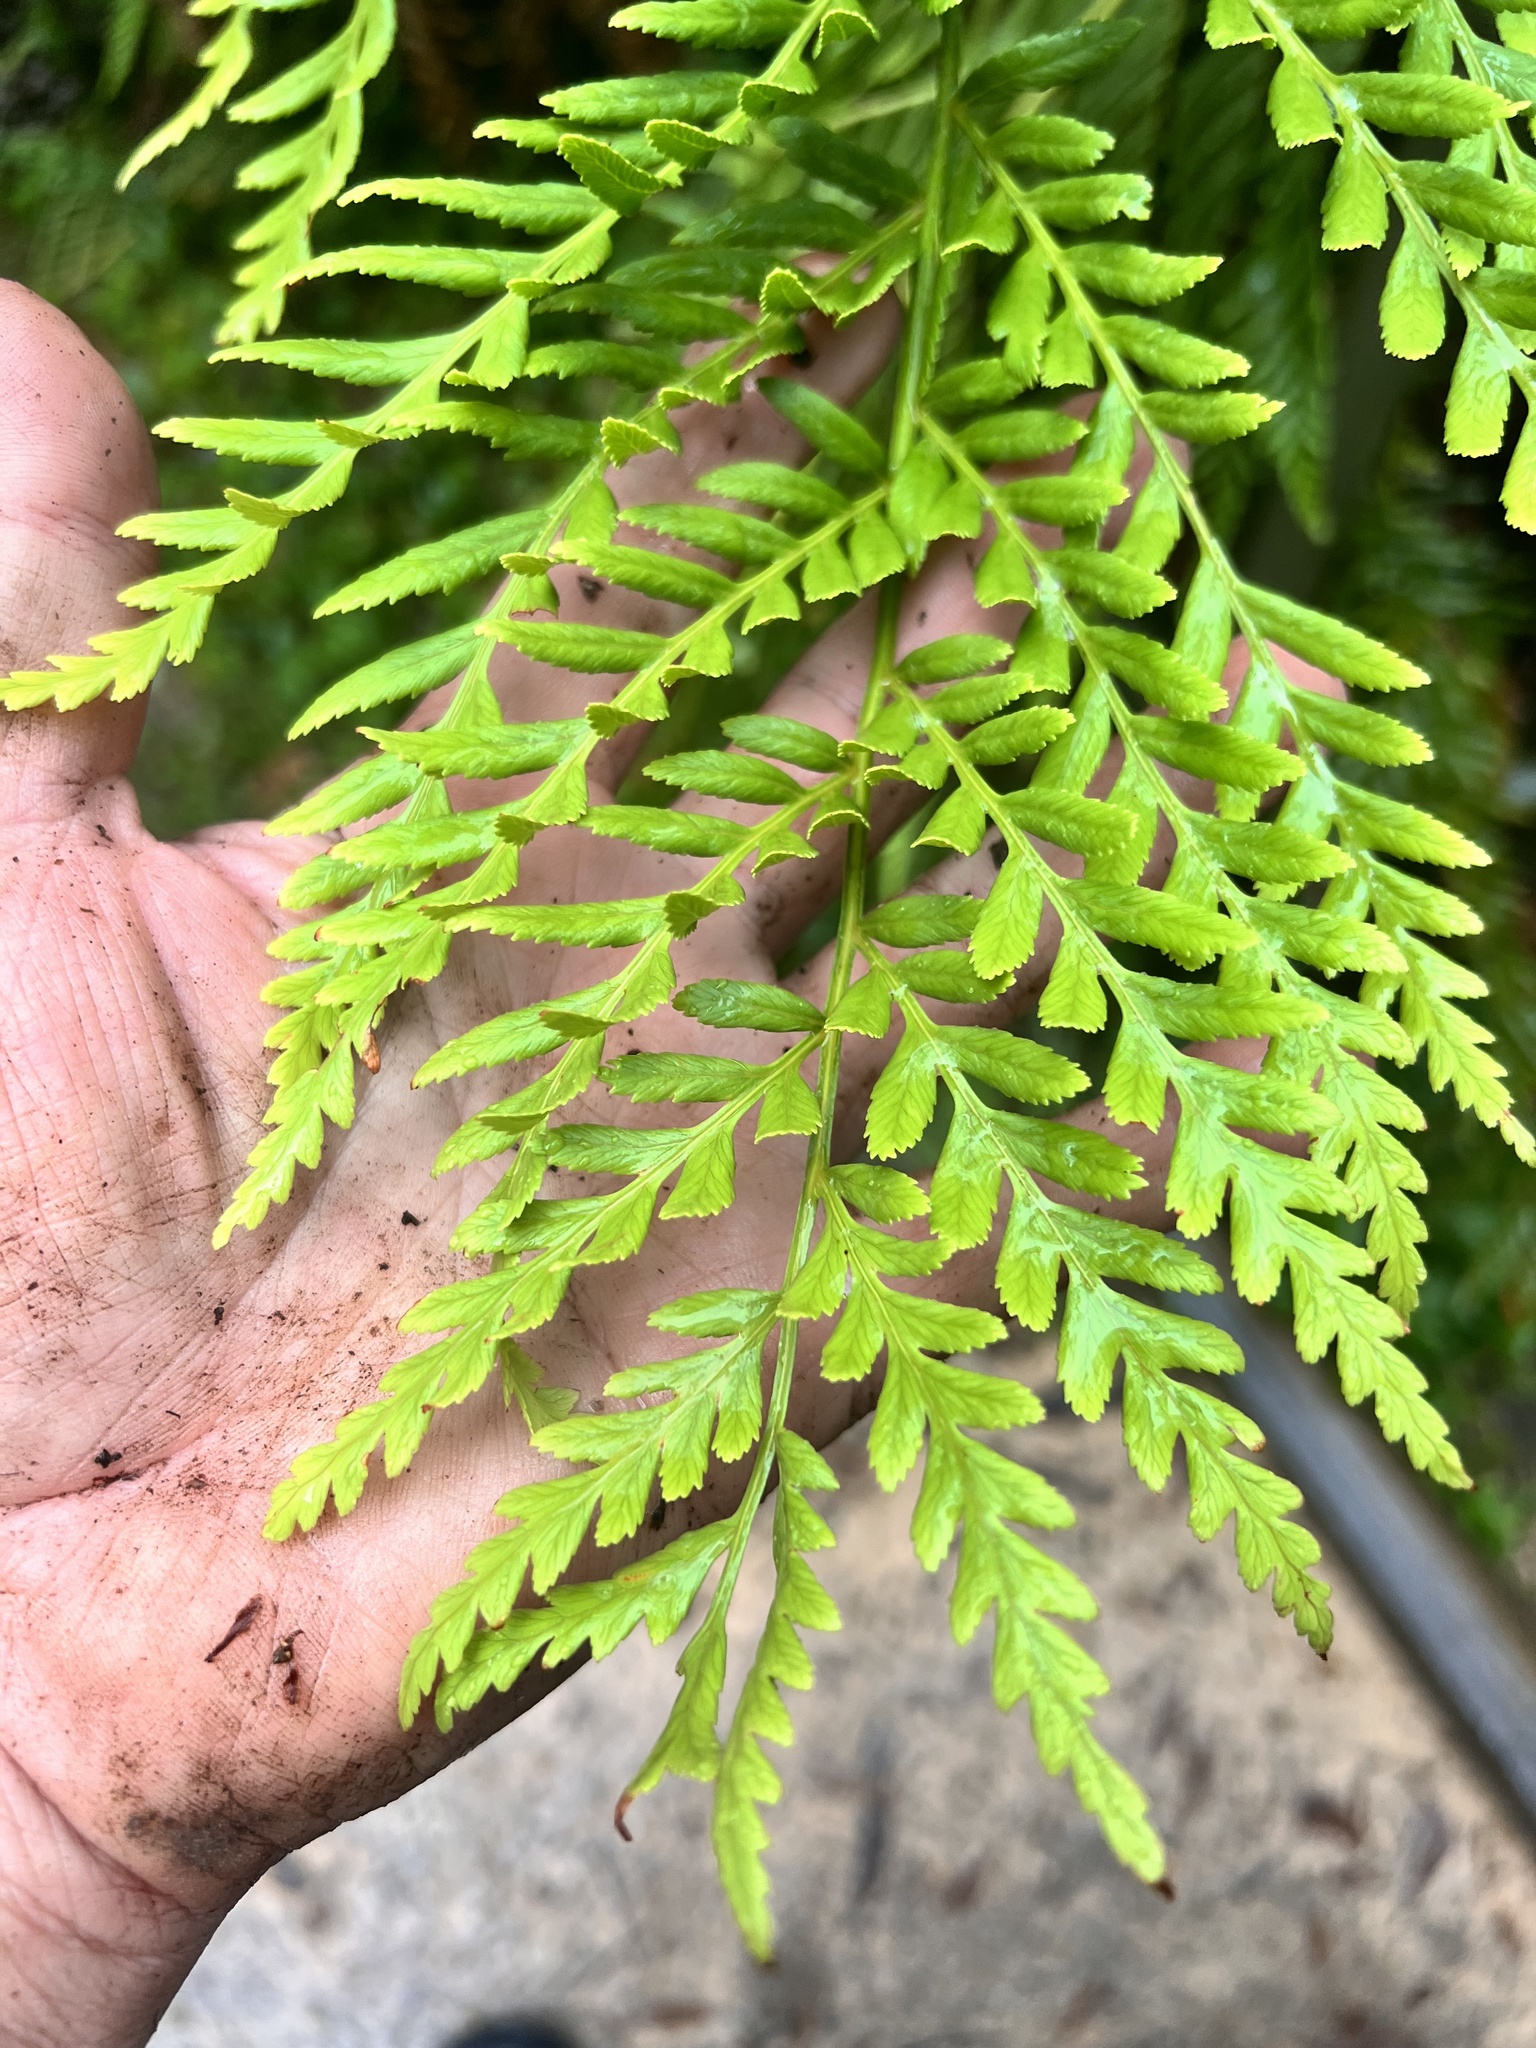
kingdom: Plantae
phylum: Tracheophyta
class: Polypodiopsida
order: Osmundales
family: Osmundaceae
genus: Todea
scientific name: Todea barbara
